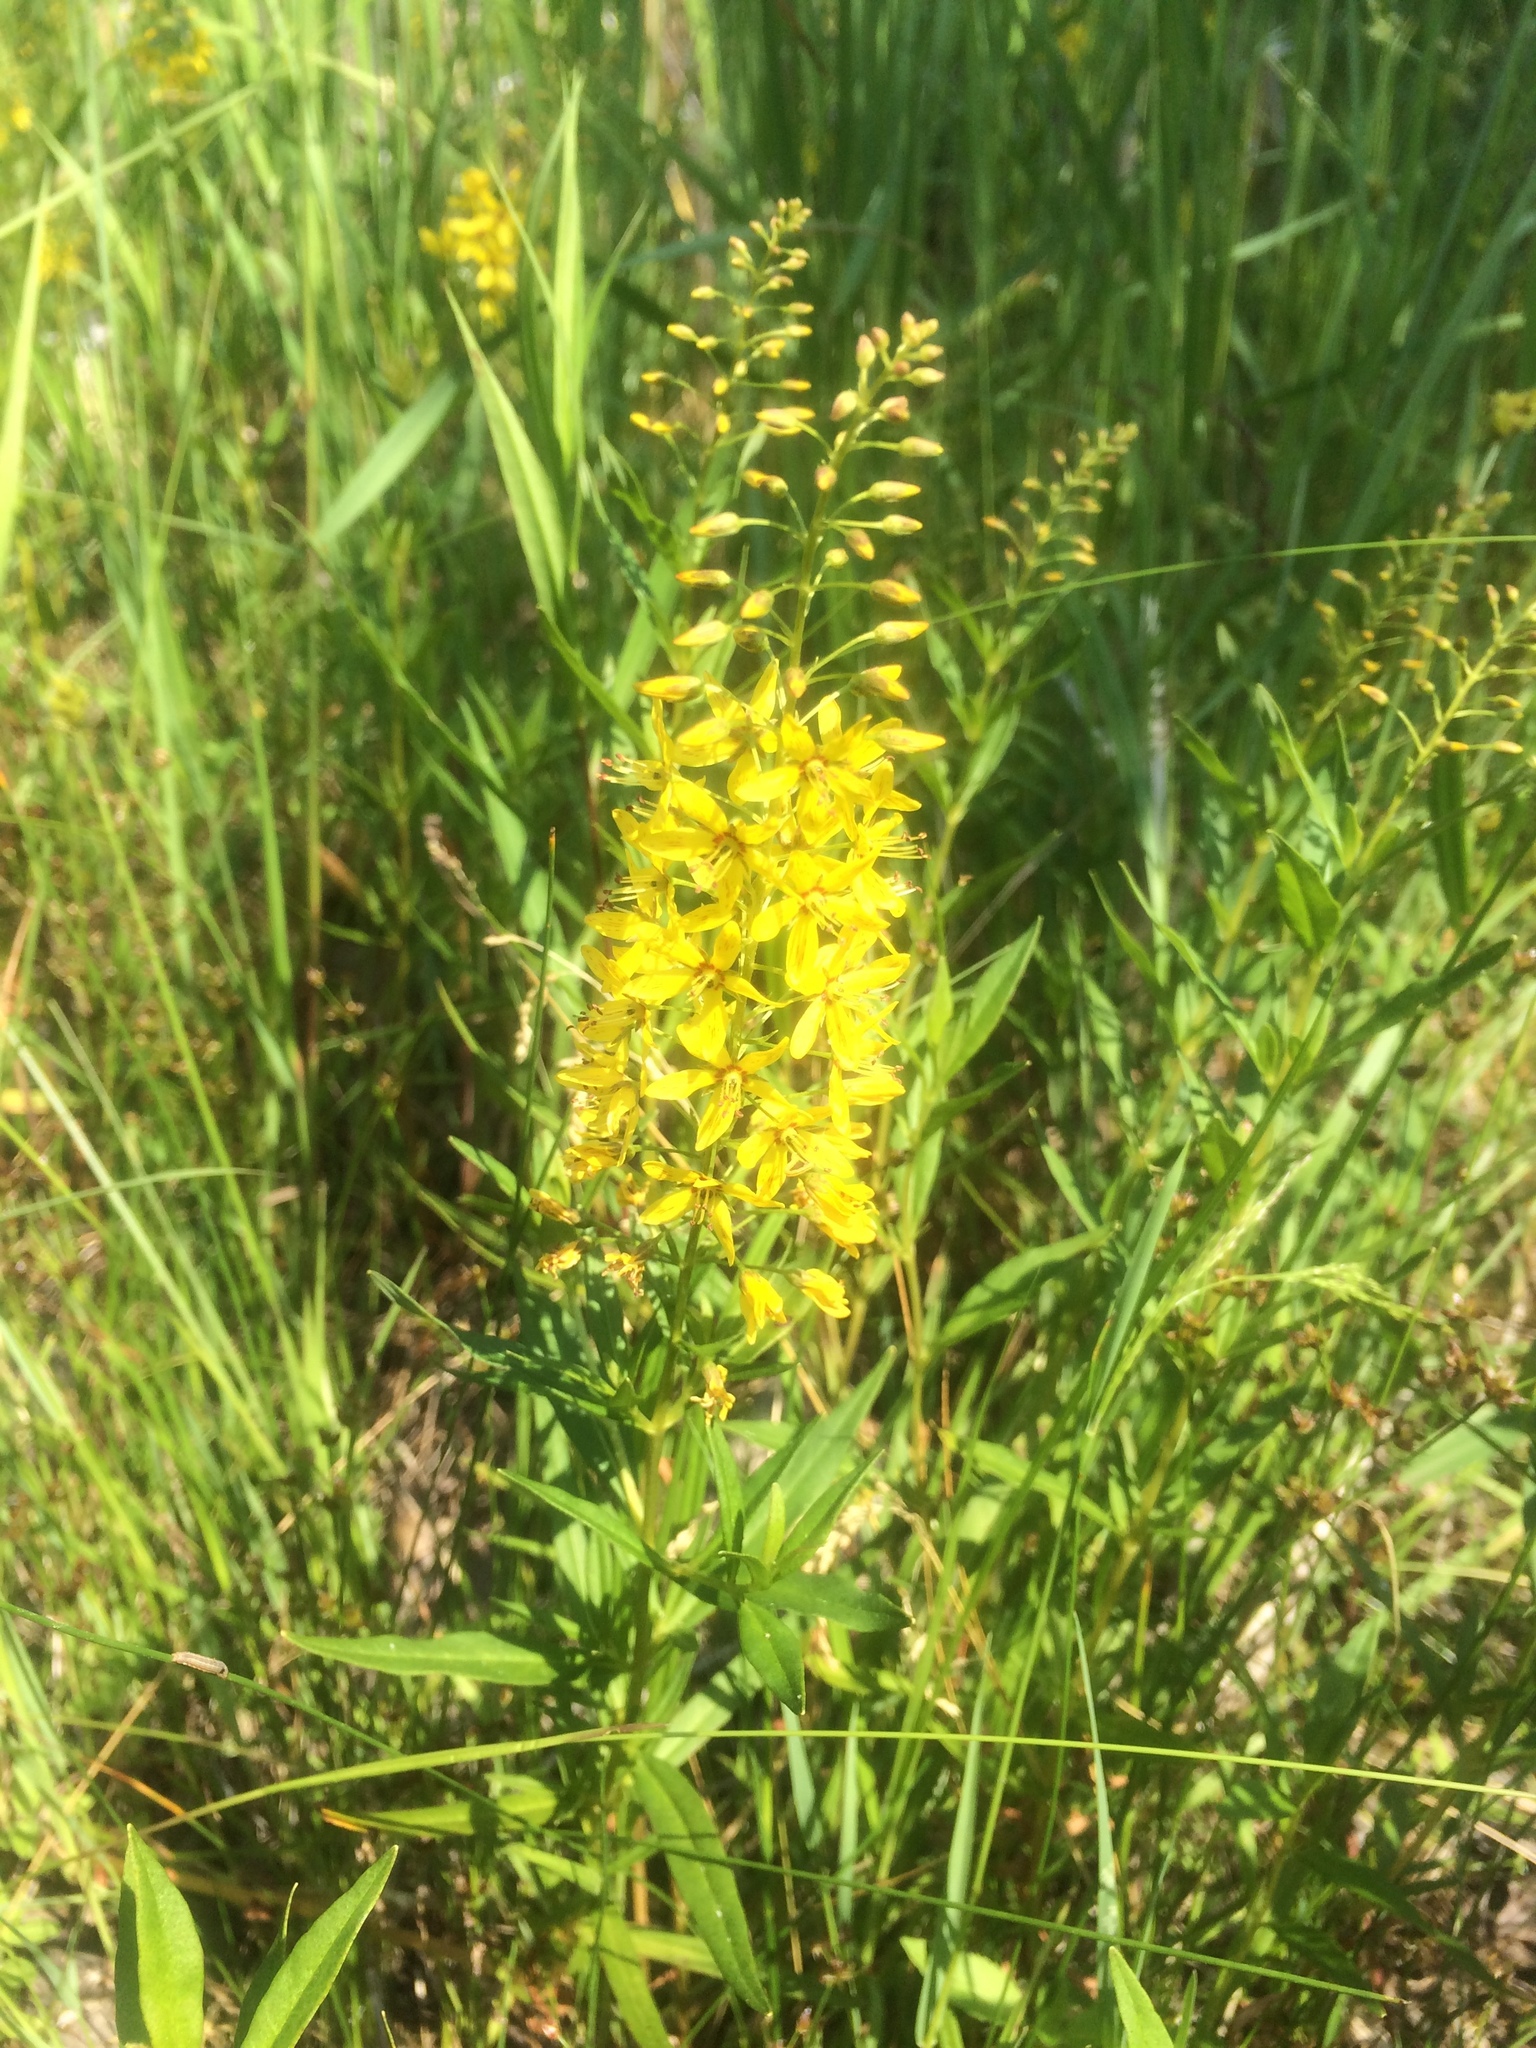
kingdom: Plantae
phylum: Tracheophyta
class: Magnoliopsida
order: Ericales
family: Primulaceae
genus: Lysimachia
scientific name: Lysimachia terrestris
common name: Lake loosestrife
